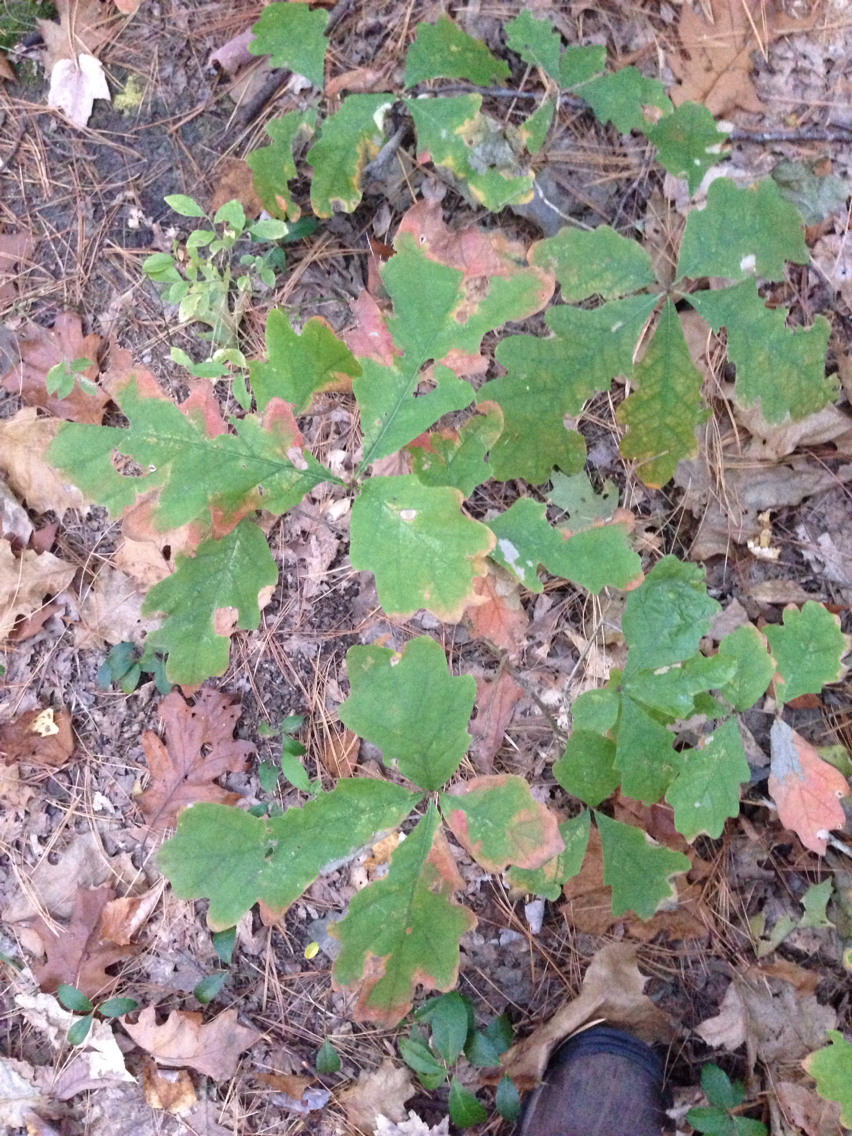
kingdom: Plantae
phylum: Tracheophyta
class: Magnoliopsida
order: Fagales
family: Fagaceae
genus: Quercus
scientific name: Quercus alba
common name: White oak
